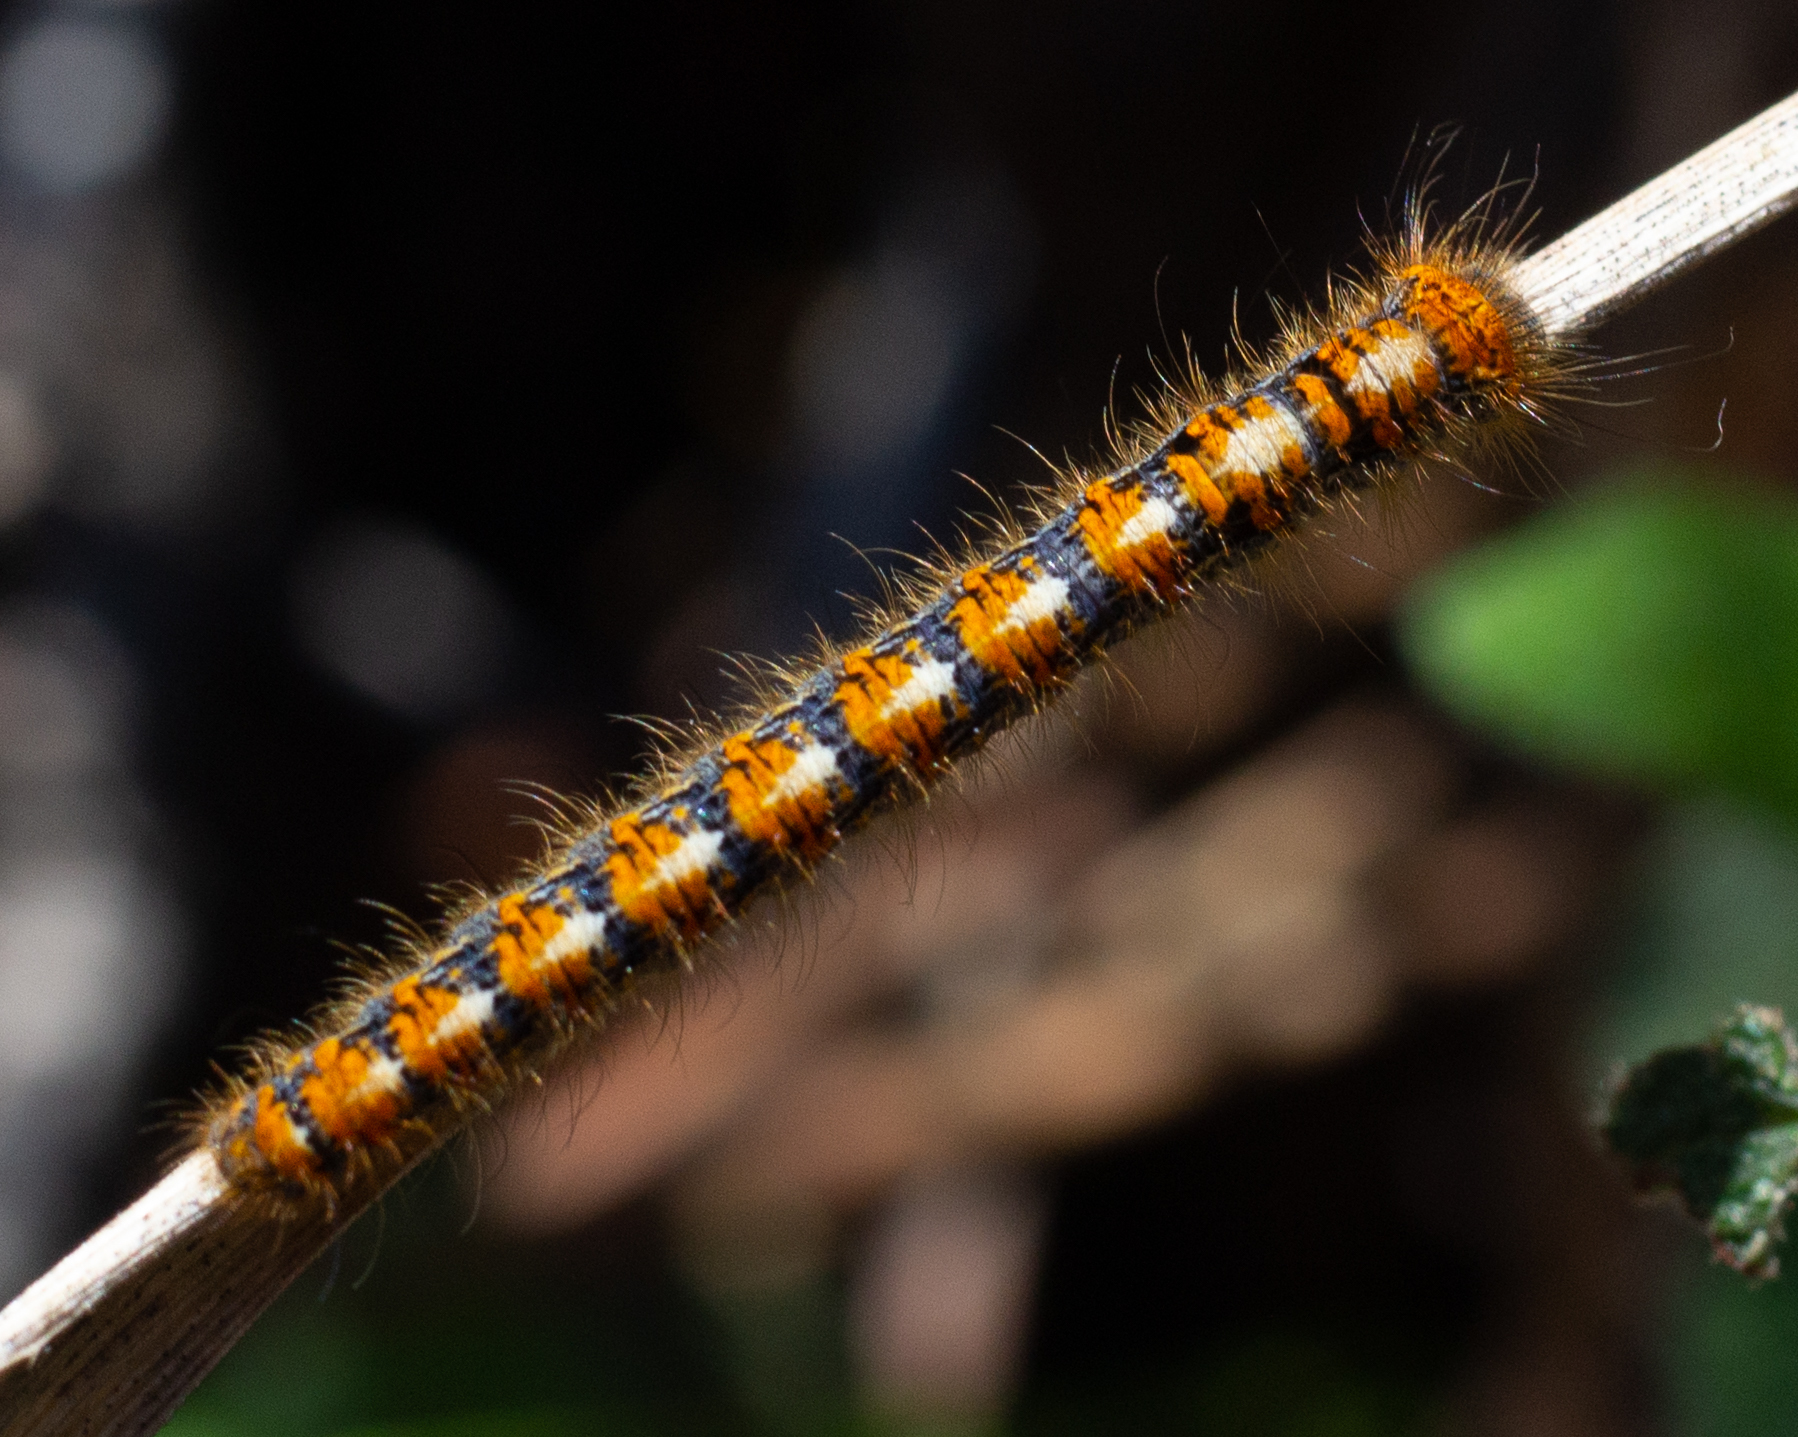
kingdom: Animalia
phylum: Arthropoda
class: Insecta
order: Lepidoptera
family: Lasiocampidae
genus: Lasiocampa
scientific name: Lasiocampa quercus
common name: Oak eggar
